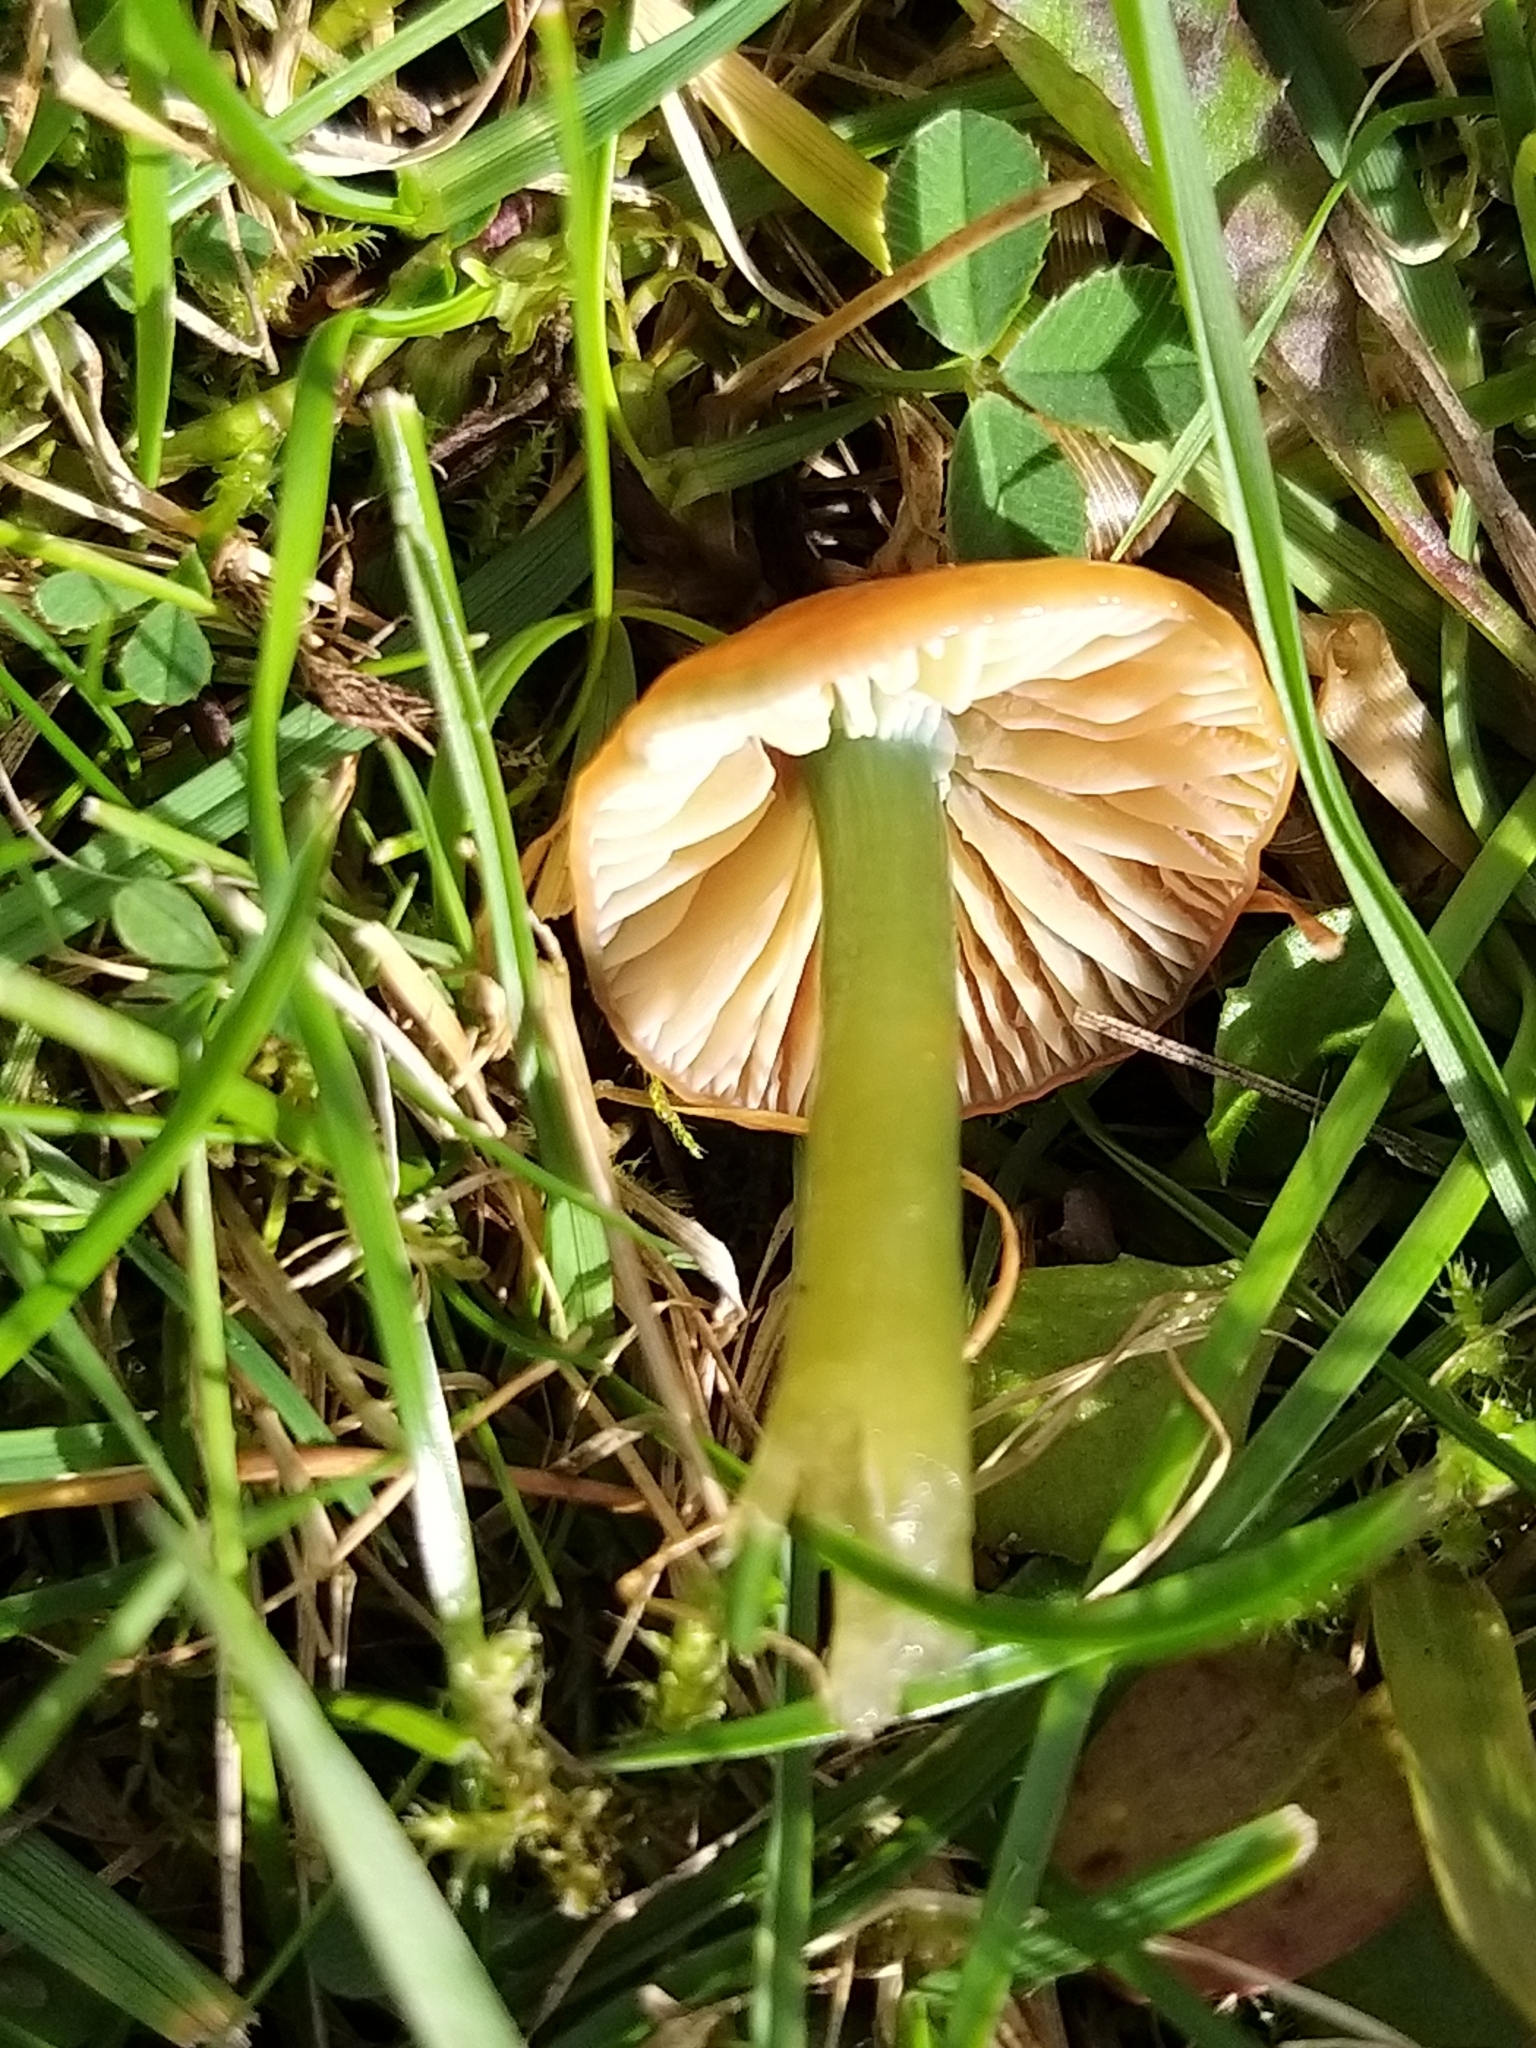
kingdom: Fungi
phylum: Basidiomycota
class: Agaricomycetes
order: Agaricales
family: Hygrophoraceae
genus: Gliophorus
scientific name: Gliophorus psittacinus
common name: Parrot wax-cap
